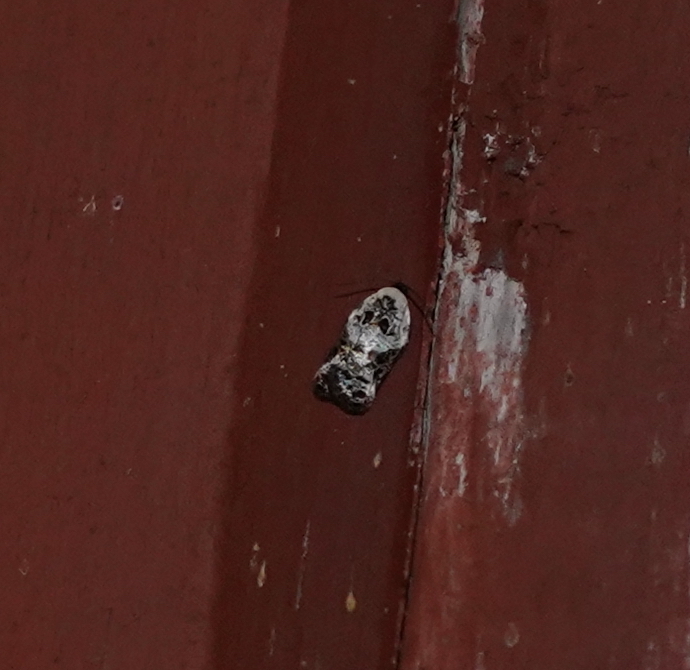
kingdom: Animalia
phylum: Arthropoda
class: Insecta
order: Lepidoptera
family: Tortricidae
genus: Acleris
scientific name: Acleris nivisellana
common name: Snowy-shouldered acleris moth
